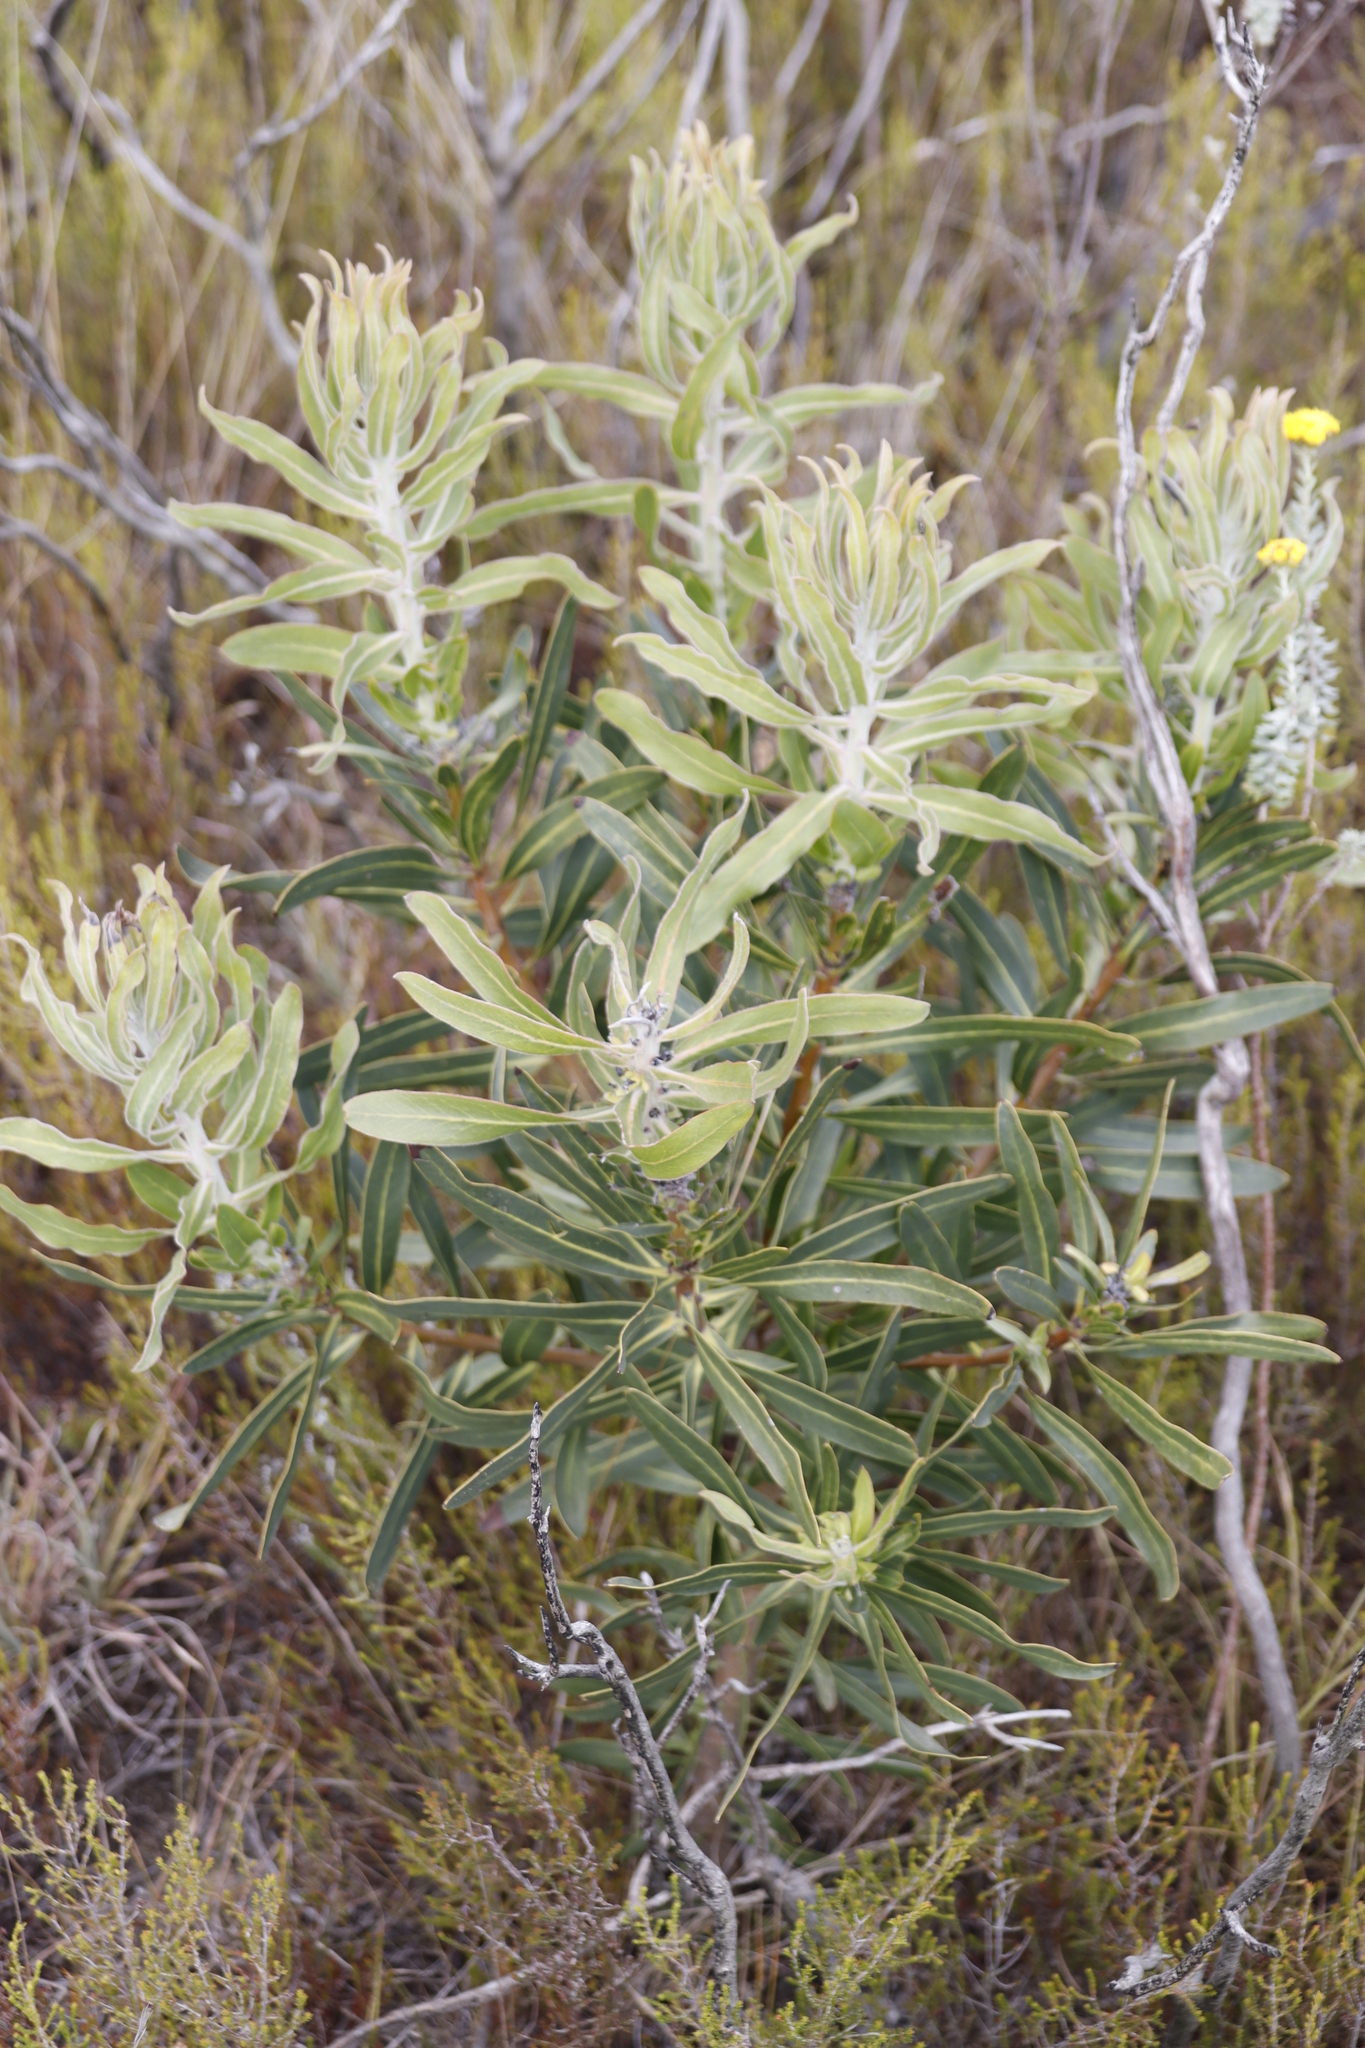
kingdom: Plantae
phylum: Tracheophyta
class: Magnoliopsida
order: Proteales
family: Proteaceae
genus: Protea
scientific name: Protea neriifolia
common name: Blue sugarbush
